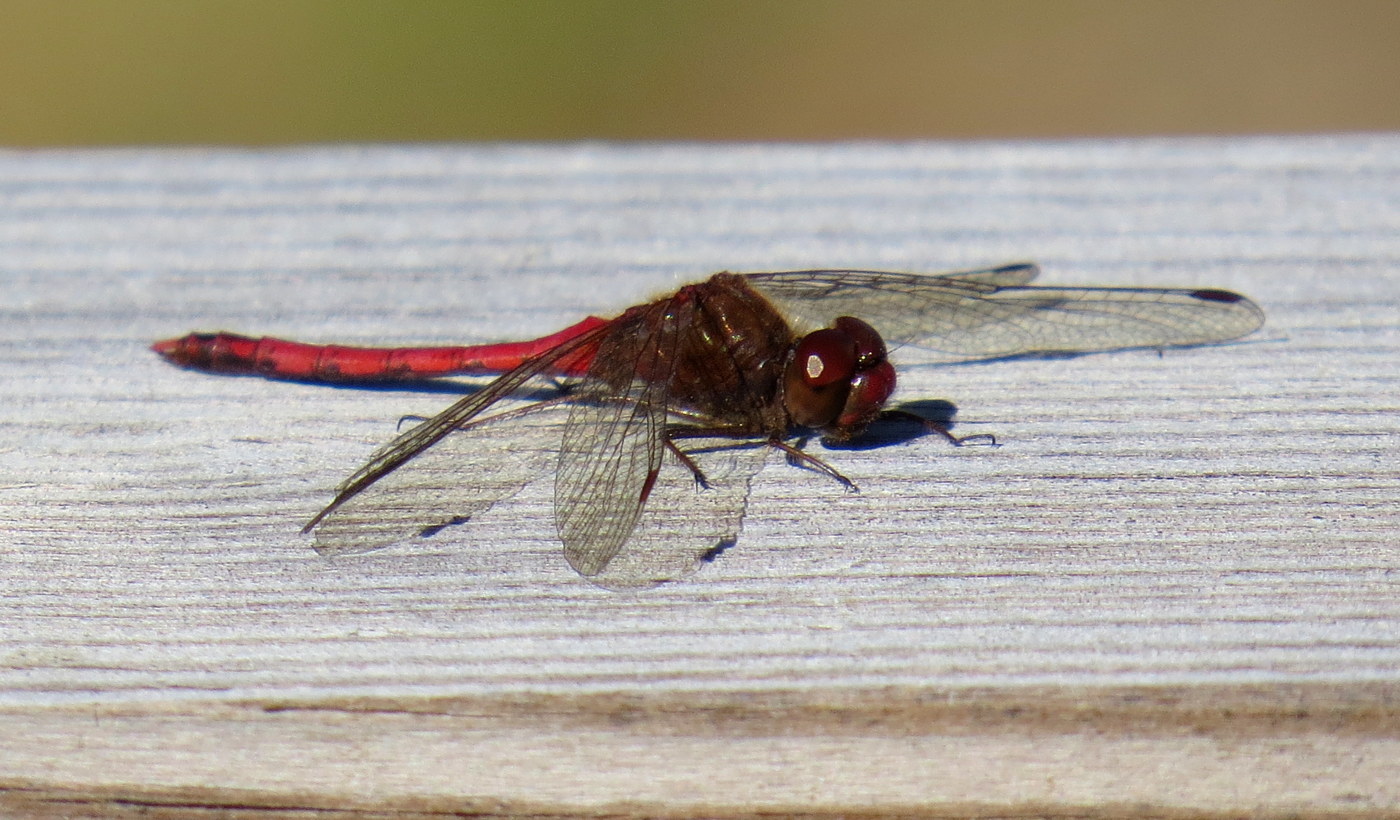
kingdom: Animalia
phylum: Arthropoda
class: Insecta
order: Odonata
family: Libellulidae
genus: Sympetrum
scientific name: Sympetrum vicinum
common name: Autumn meadowhawk
